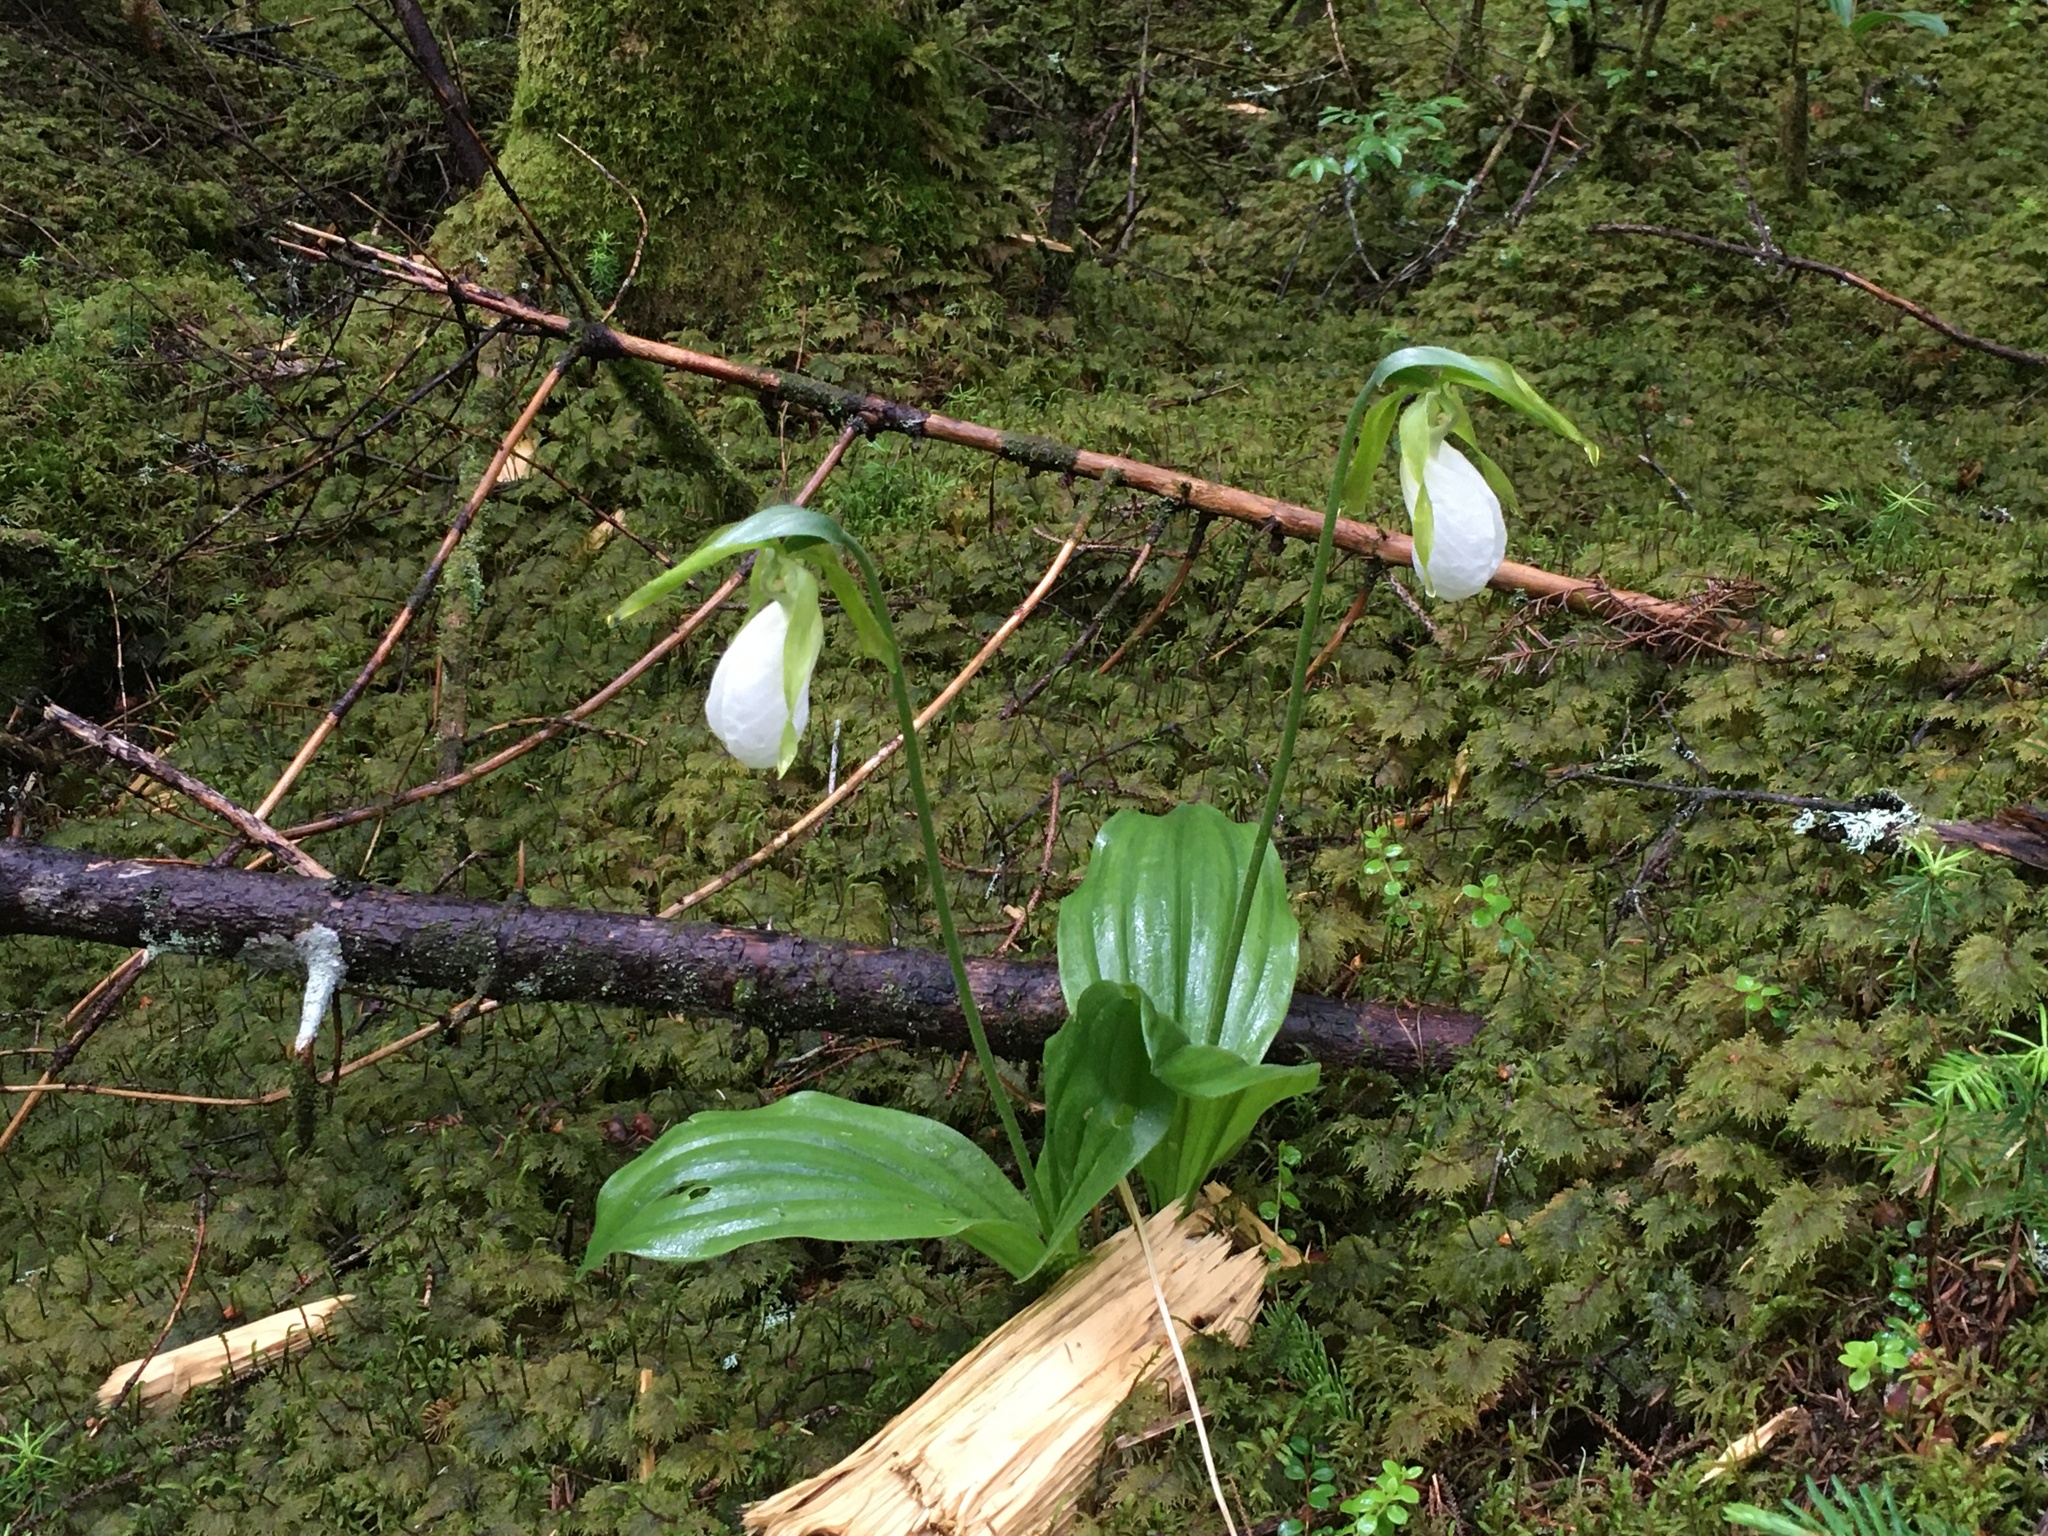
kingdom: Plantae
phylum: Tracheophyta
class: Liliopsida
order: Asparagales
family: Orchidaceae
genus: Cypripedium
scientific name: Cypripedium acaule
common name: Pink lady's-slipper
